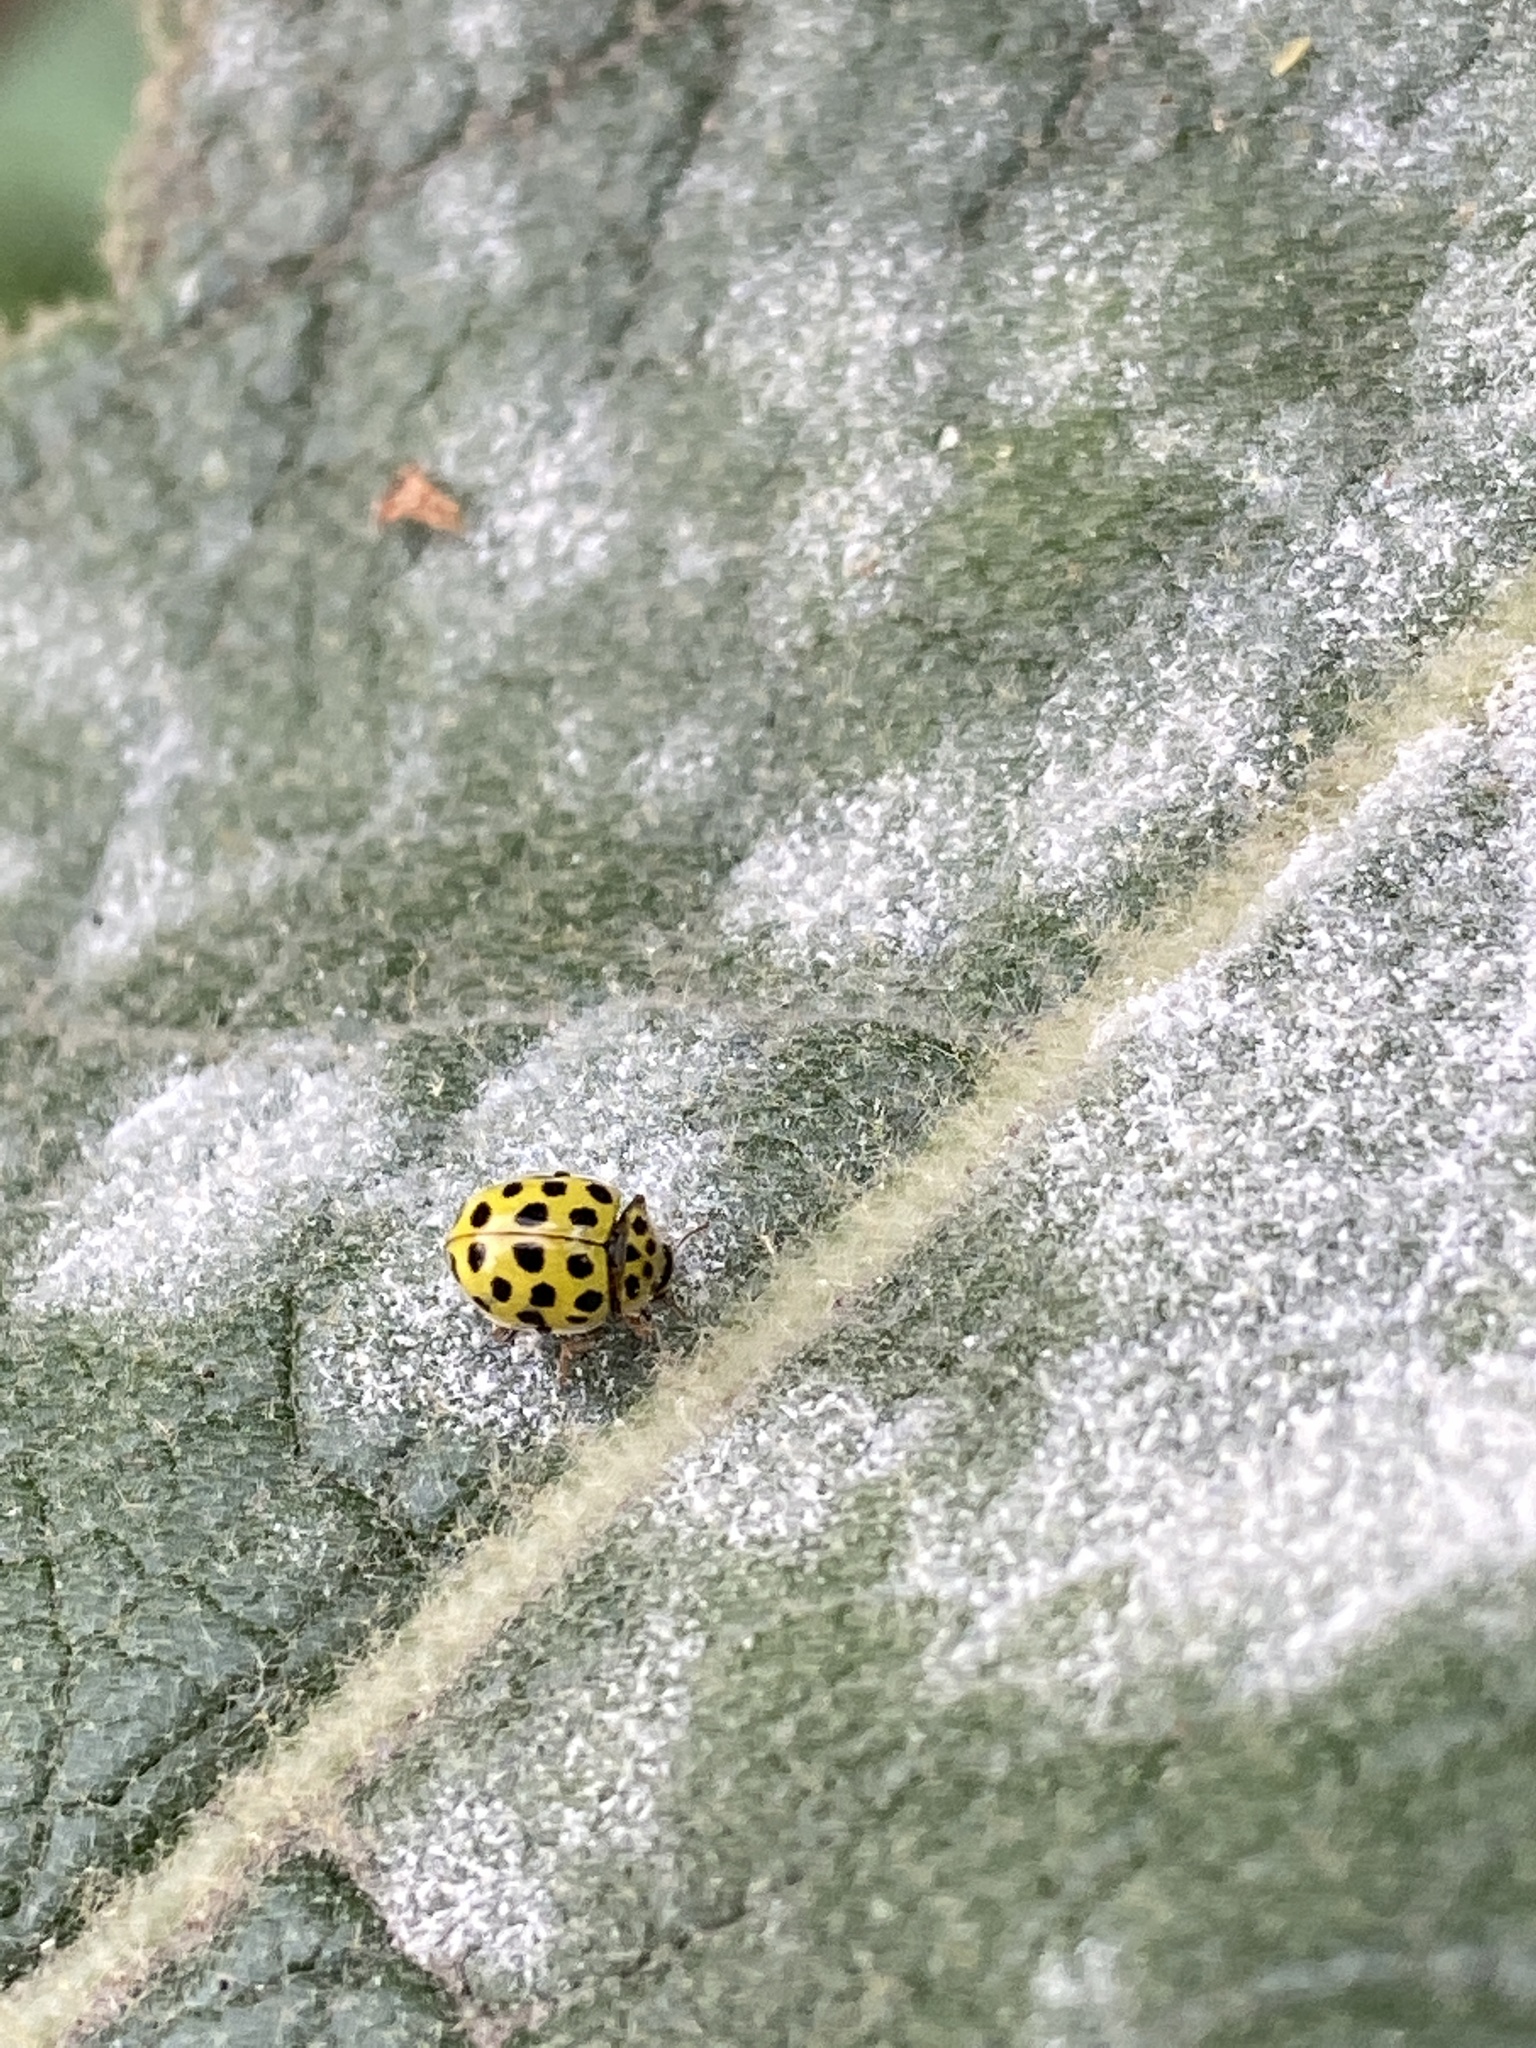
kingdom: Animalia
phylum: Arthropoda
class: Insecta
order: Coleoptera
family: Coccinellidae
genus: Psyllobora
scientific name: Psyllobora vigintiduopunctata
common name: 22-spot ladybird
